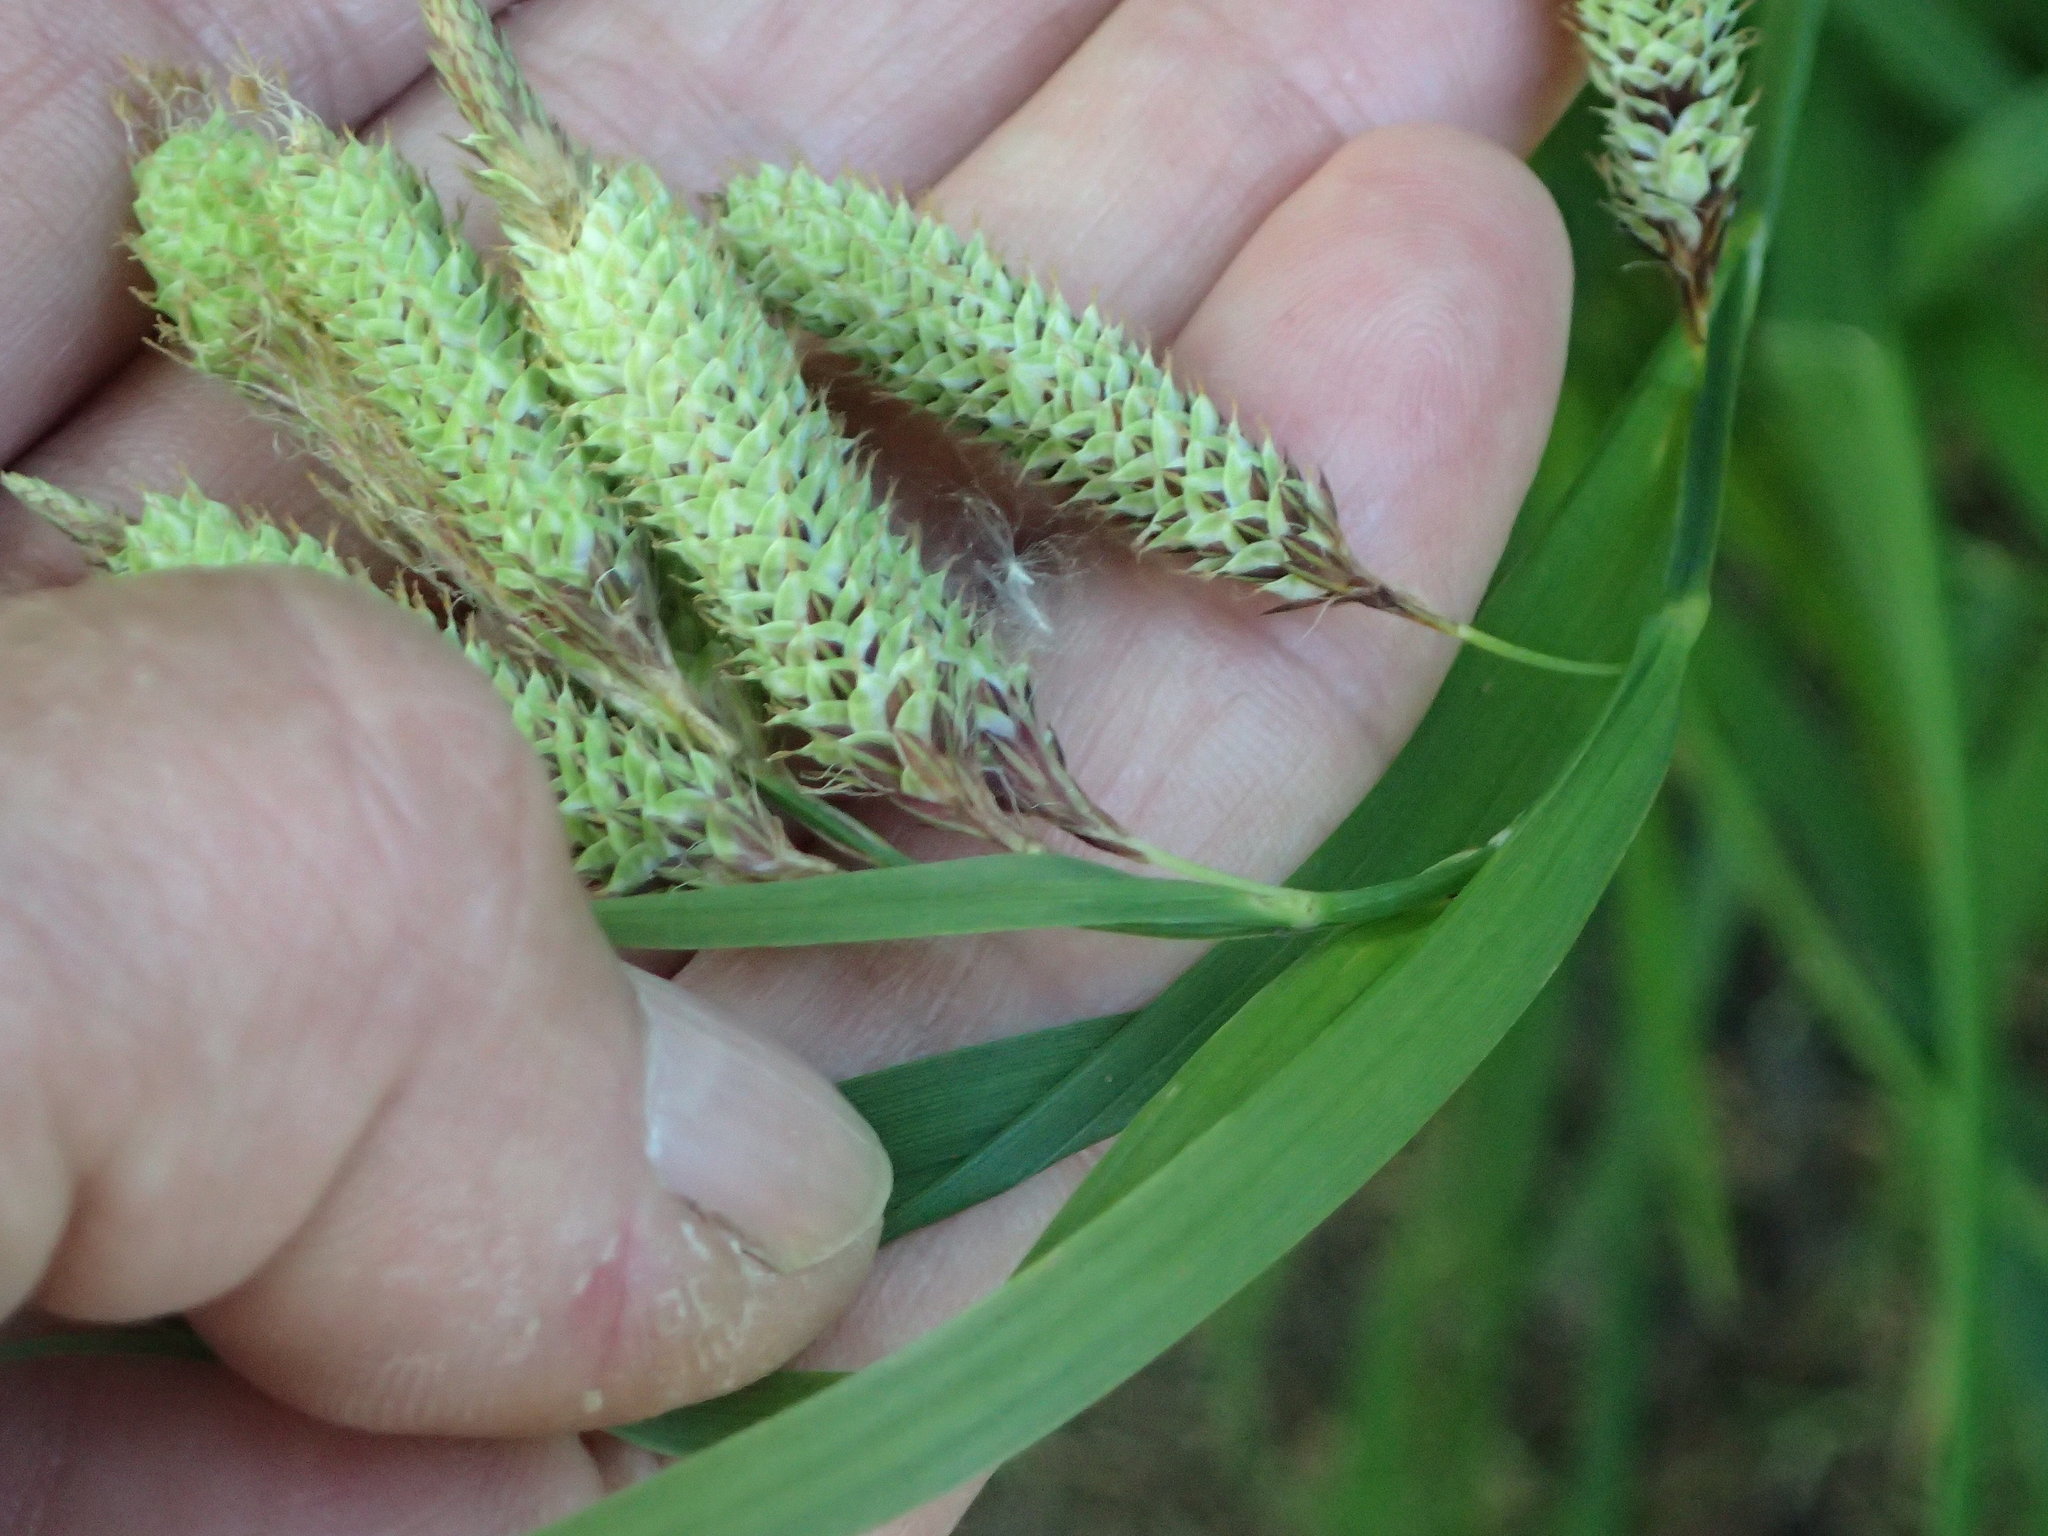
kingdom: Plantae
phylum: Tracheophyta
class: Liliopsida
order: Poales
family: Cyperaceae
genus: Carex
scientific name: Carex mertensii
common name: Mertens' sedge
